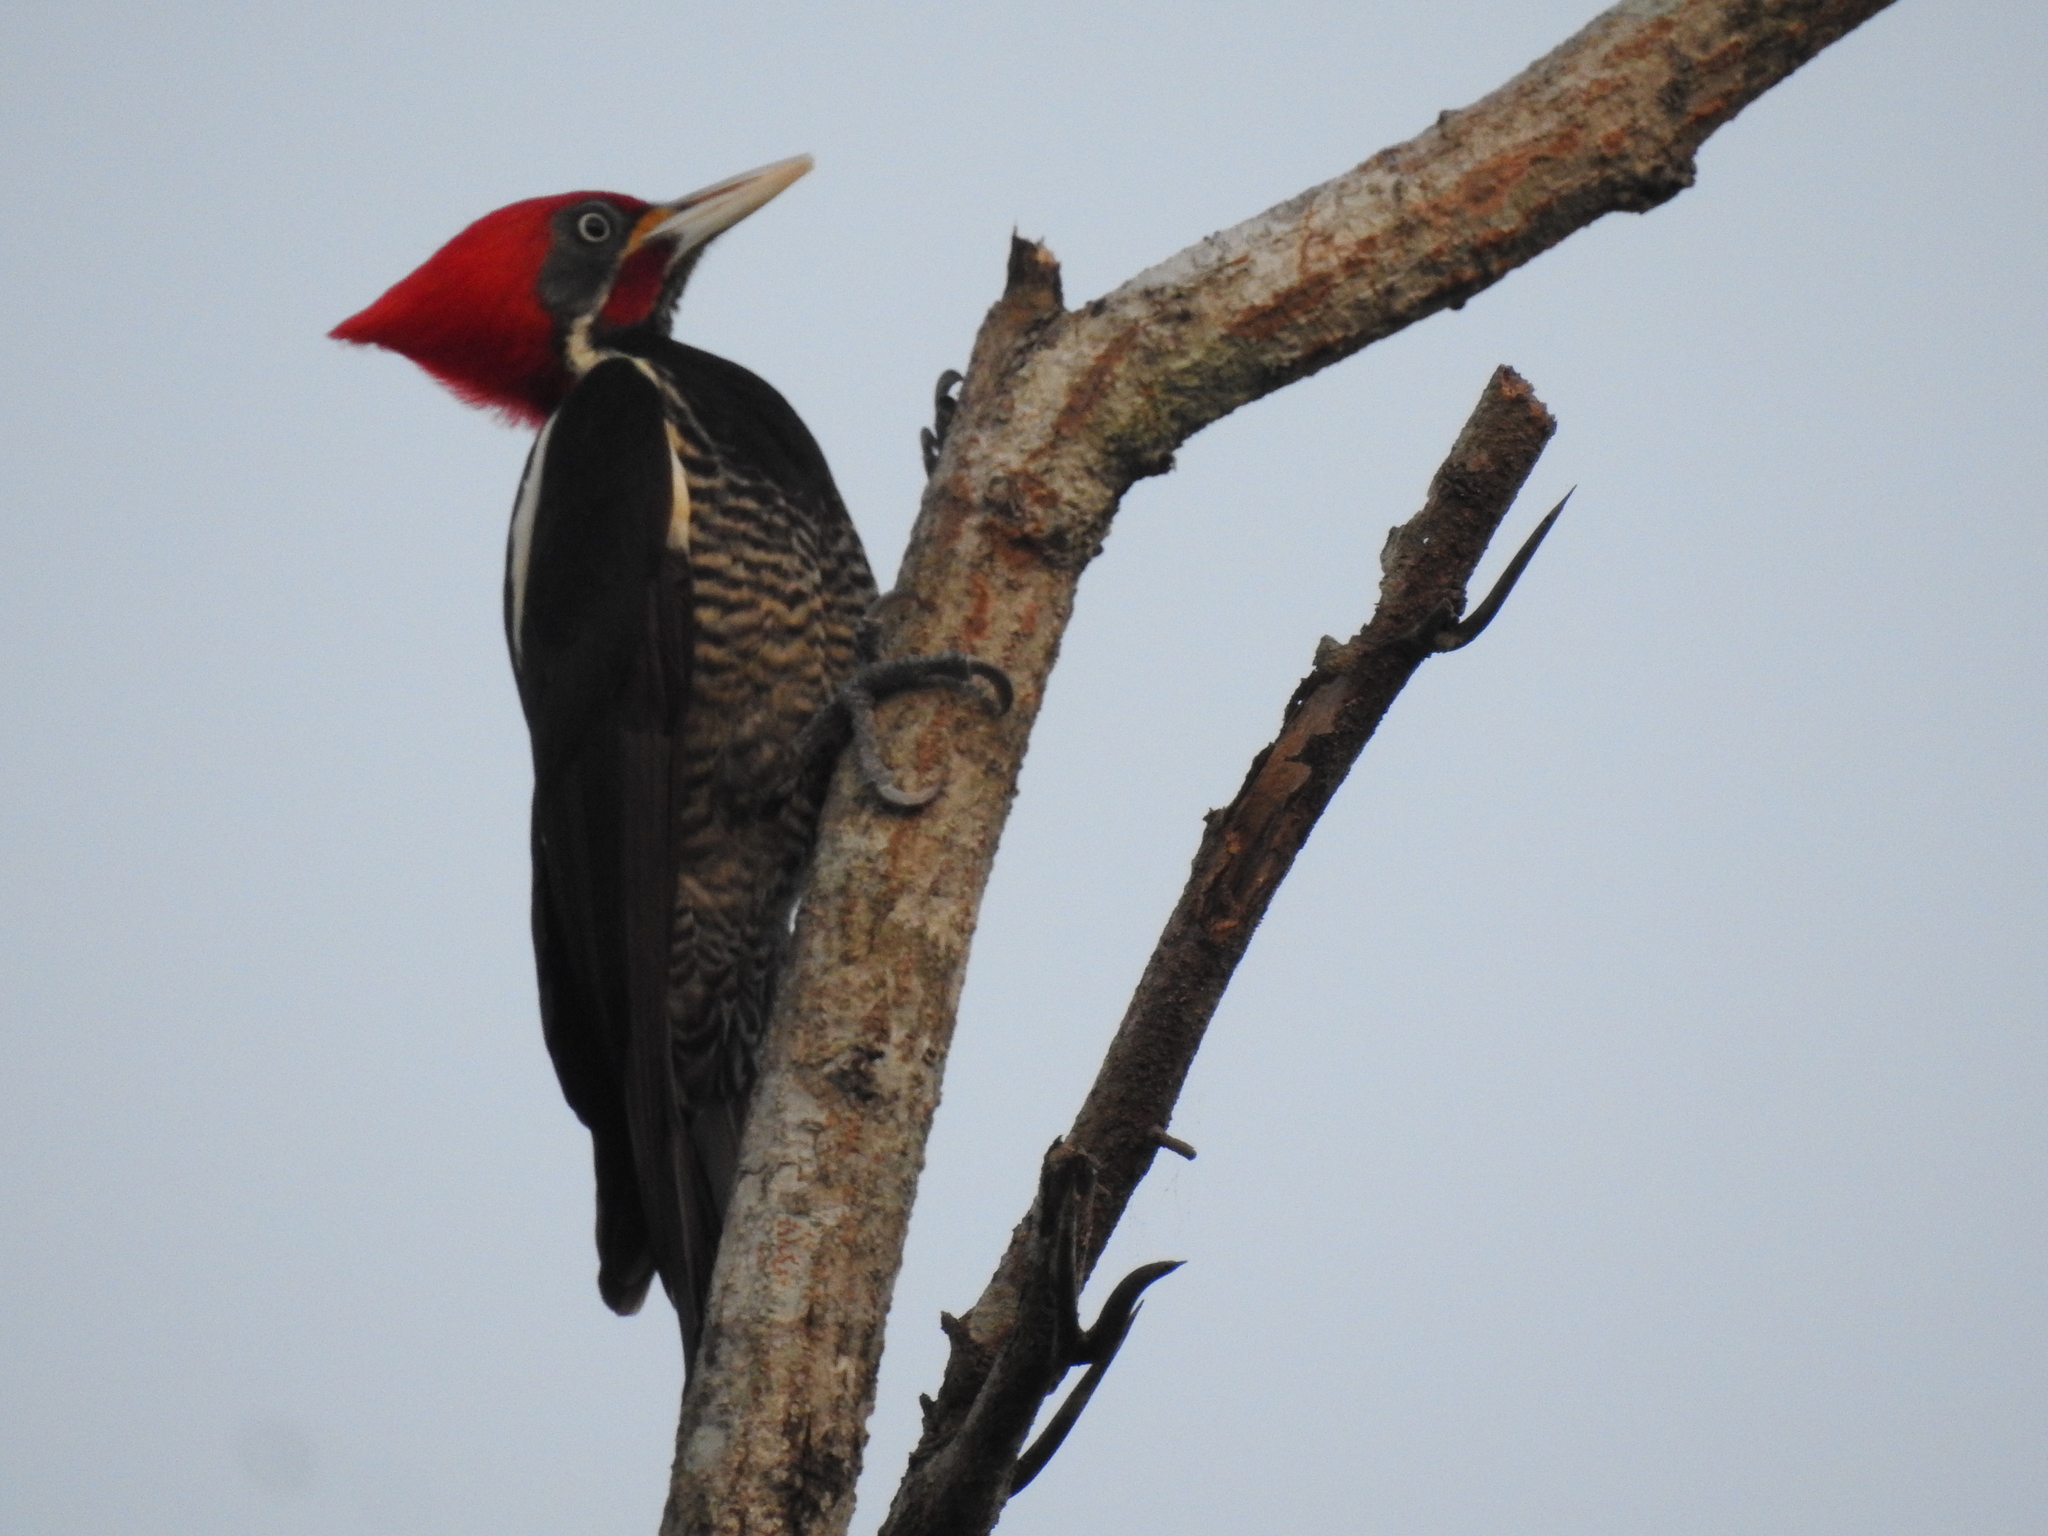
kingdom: Animalia
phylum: Chordata
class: Aves
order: Piciformes
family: Picidae
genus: Dryocopus
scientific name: Dryocopus lineatus
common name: Lineated woodpecker
